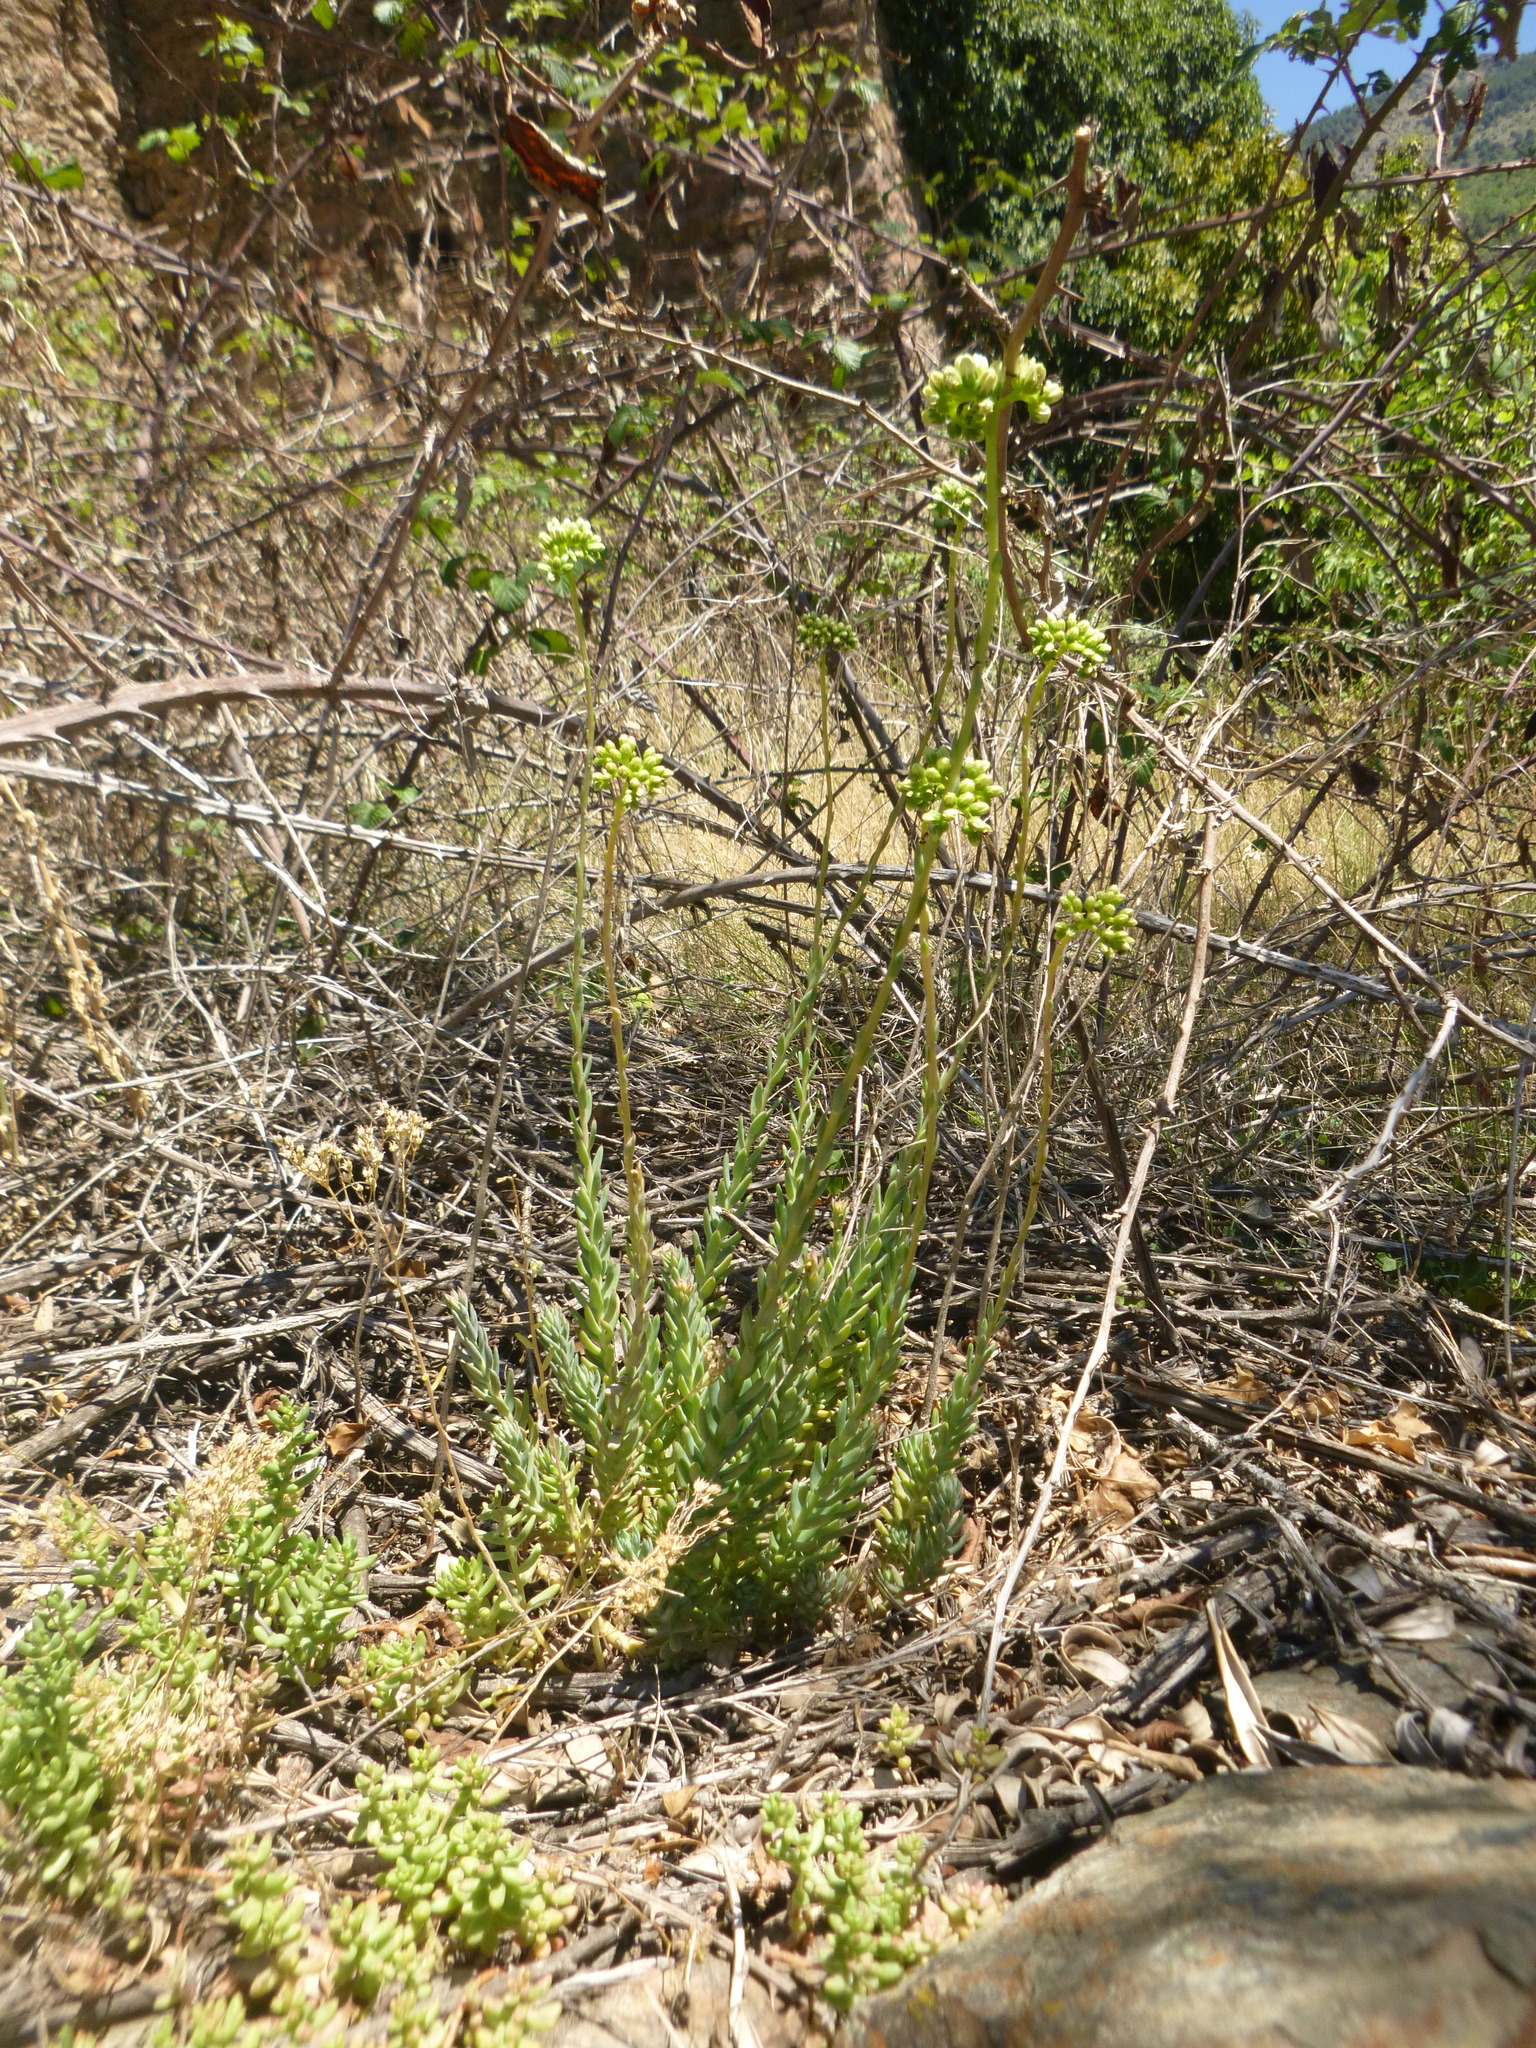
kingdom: Plantae
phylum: Tracheophyta
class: Magnoliopsida
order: Saxifragales
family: Crassulaceae
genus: Petrosedum
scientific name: Petrosedum sediforme
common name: Pale stonecrop
